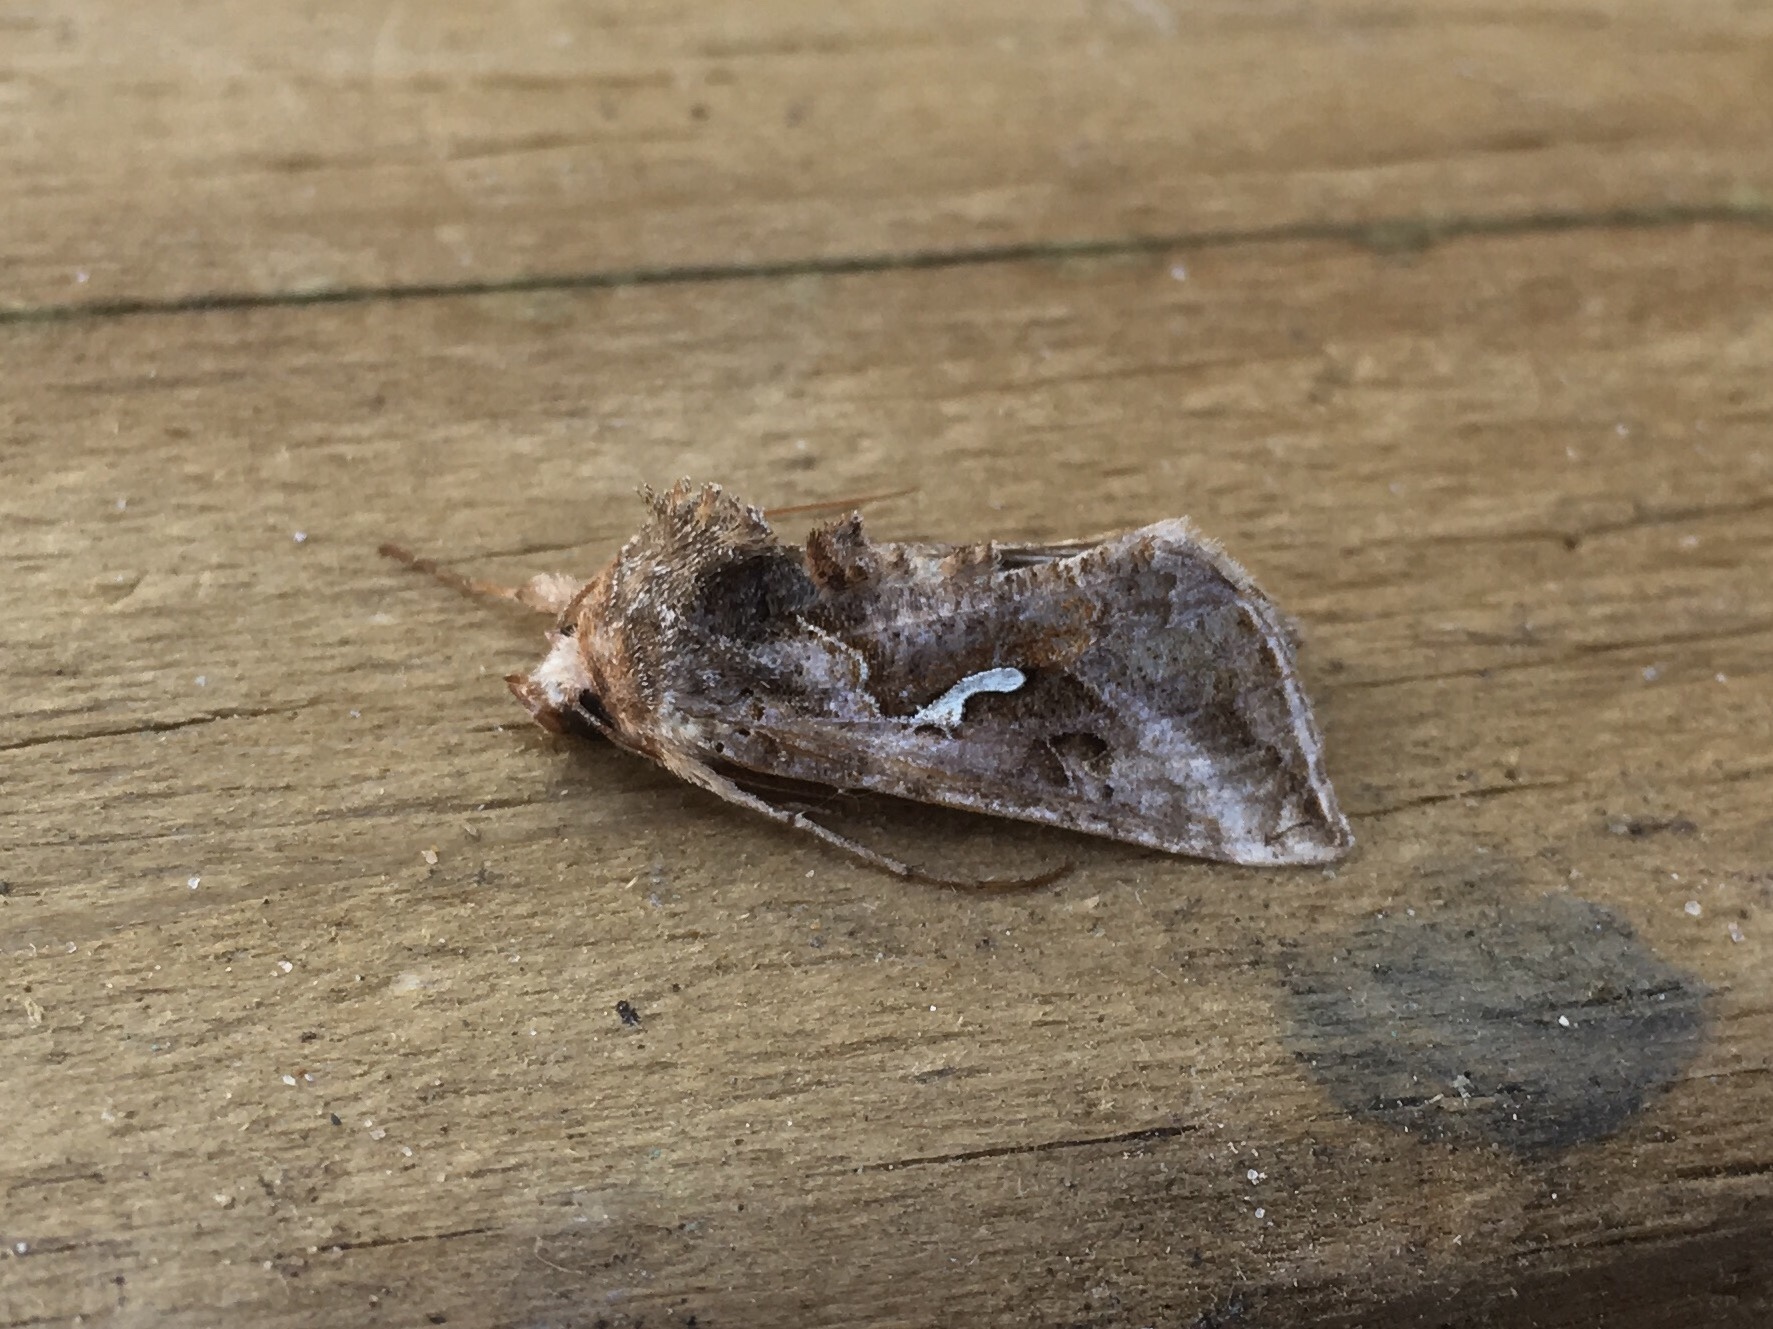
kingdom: Animalia
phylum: Arthropoda
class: Insecta
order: Lepidoptera
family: Noctuidae
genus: Autographa
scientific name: Autographa precationis
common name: Common looper moth
